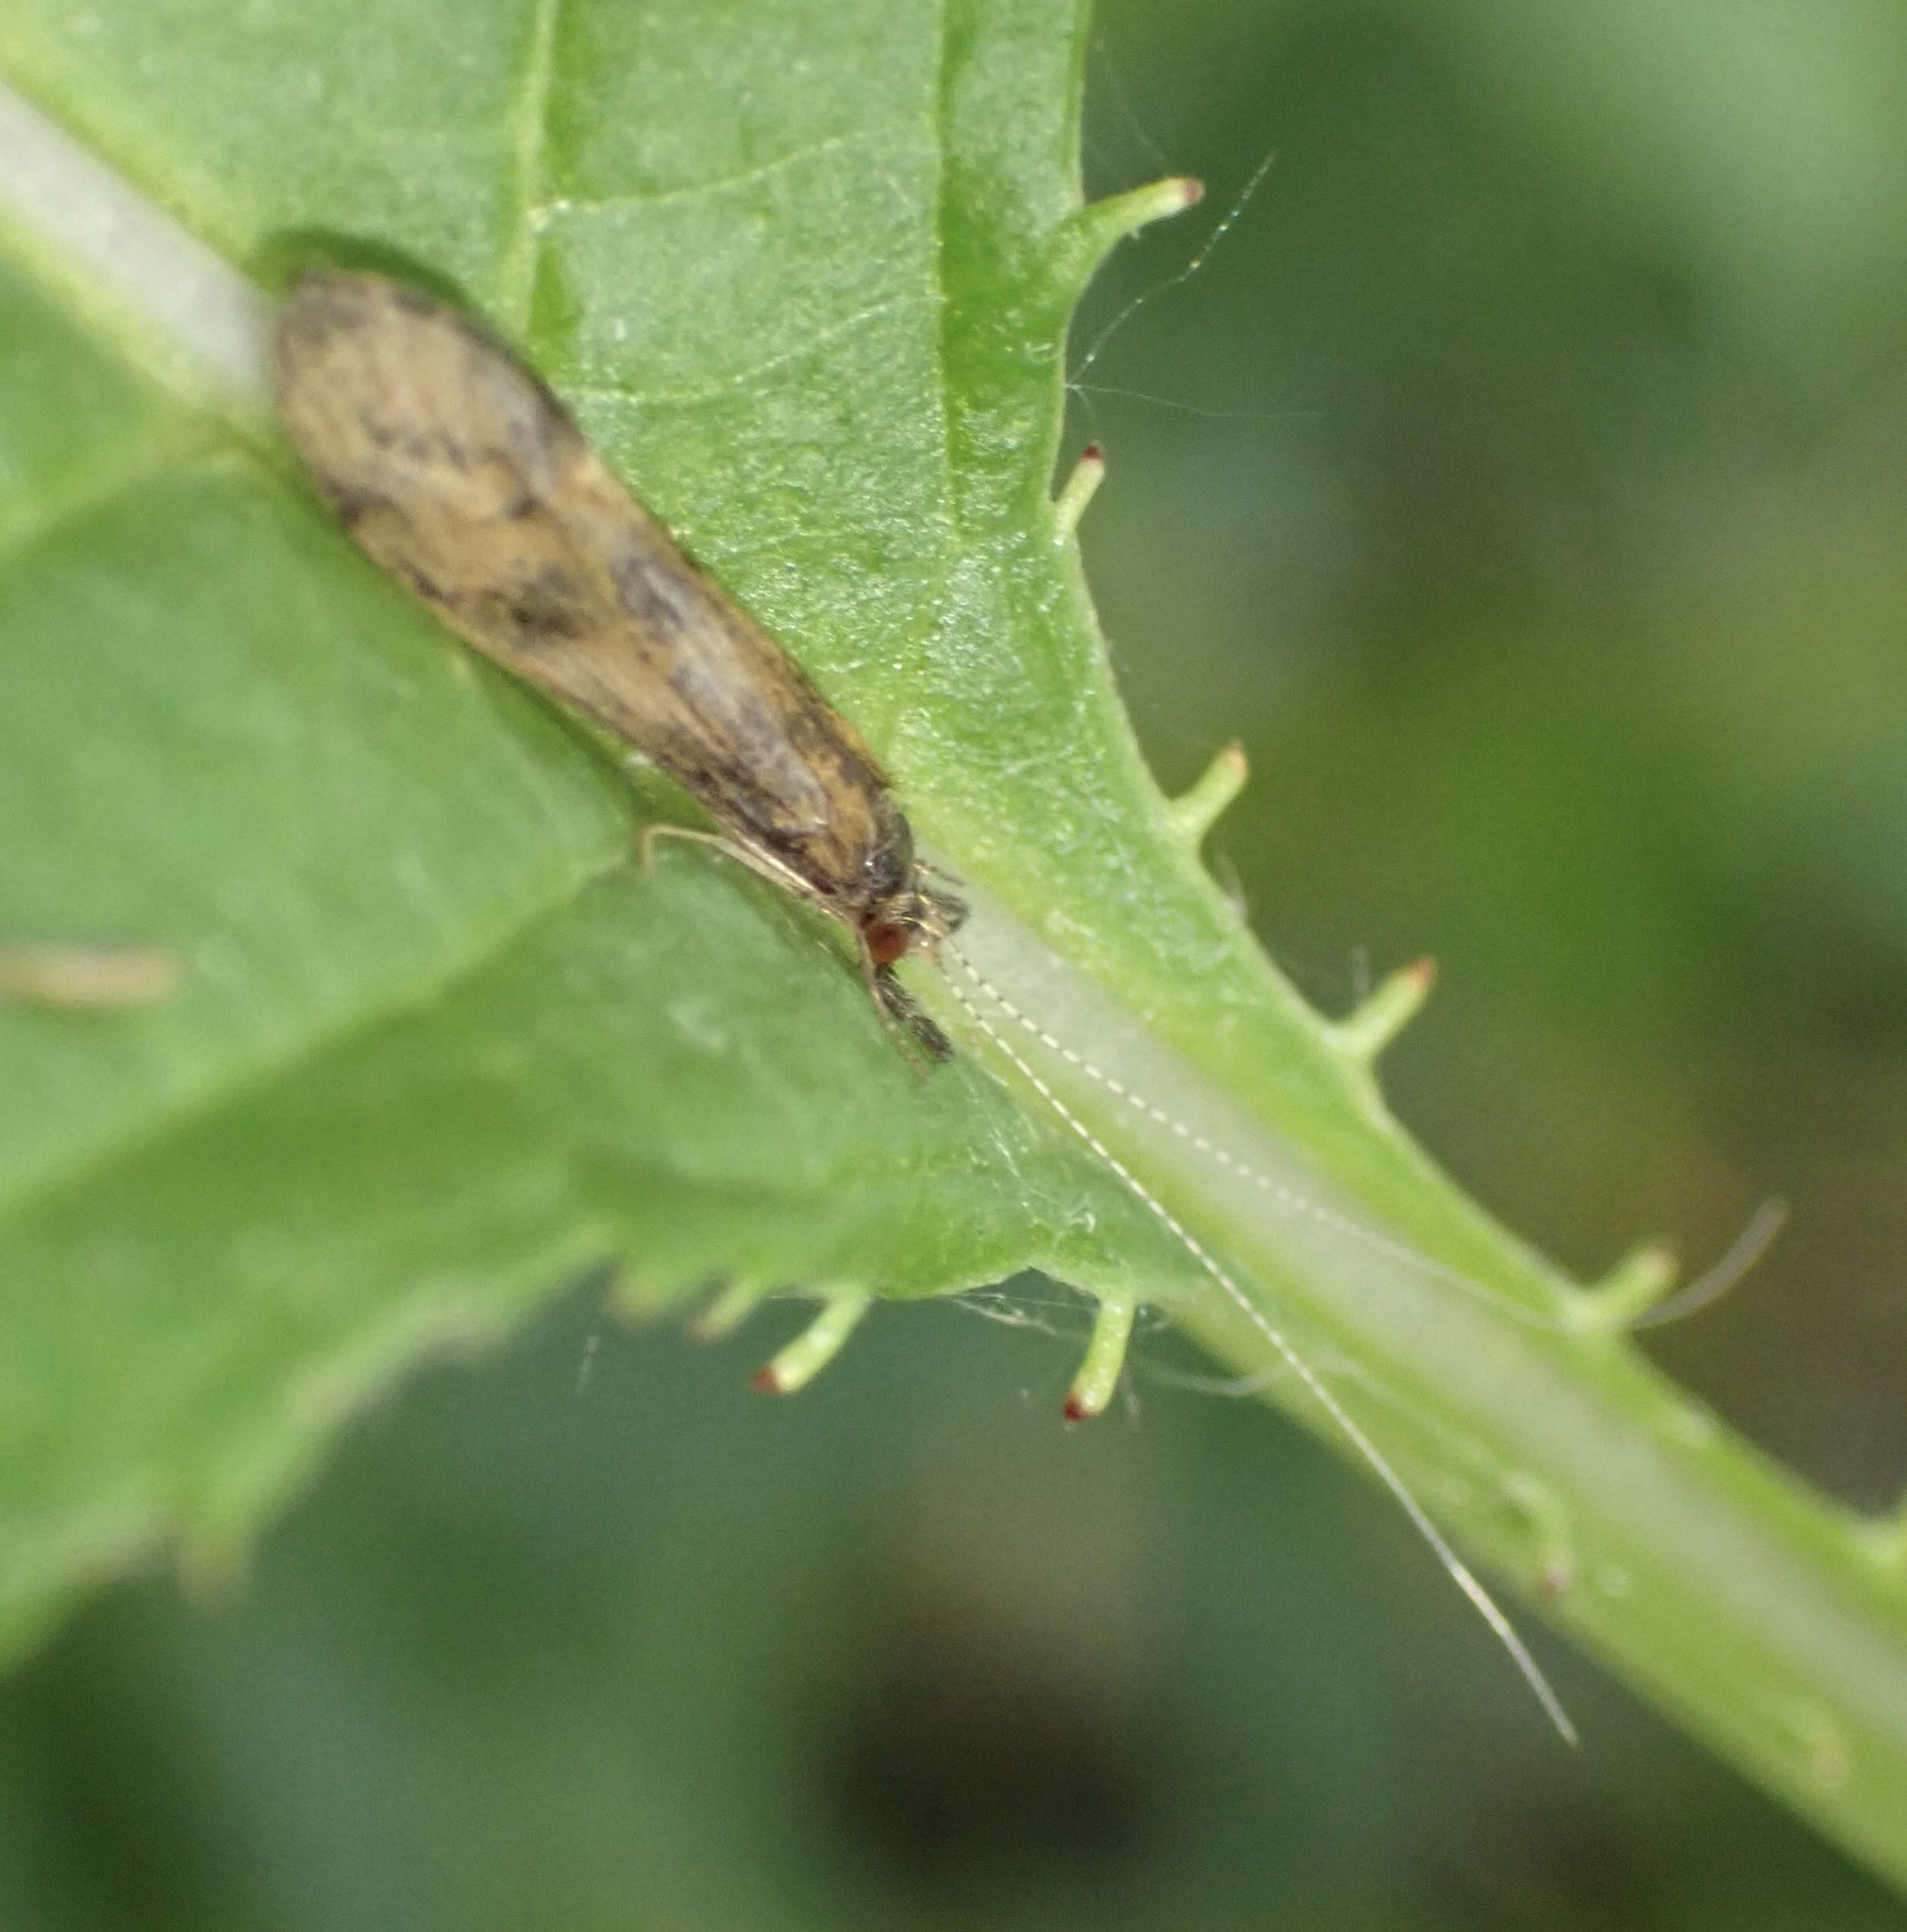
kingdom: Animalia
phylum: Arthropoda
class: Insecta
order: Trichoptera
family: Leptoceridae
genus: Mystacides
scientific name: Mystacides longicornis
